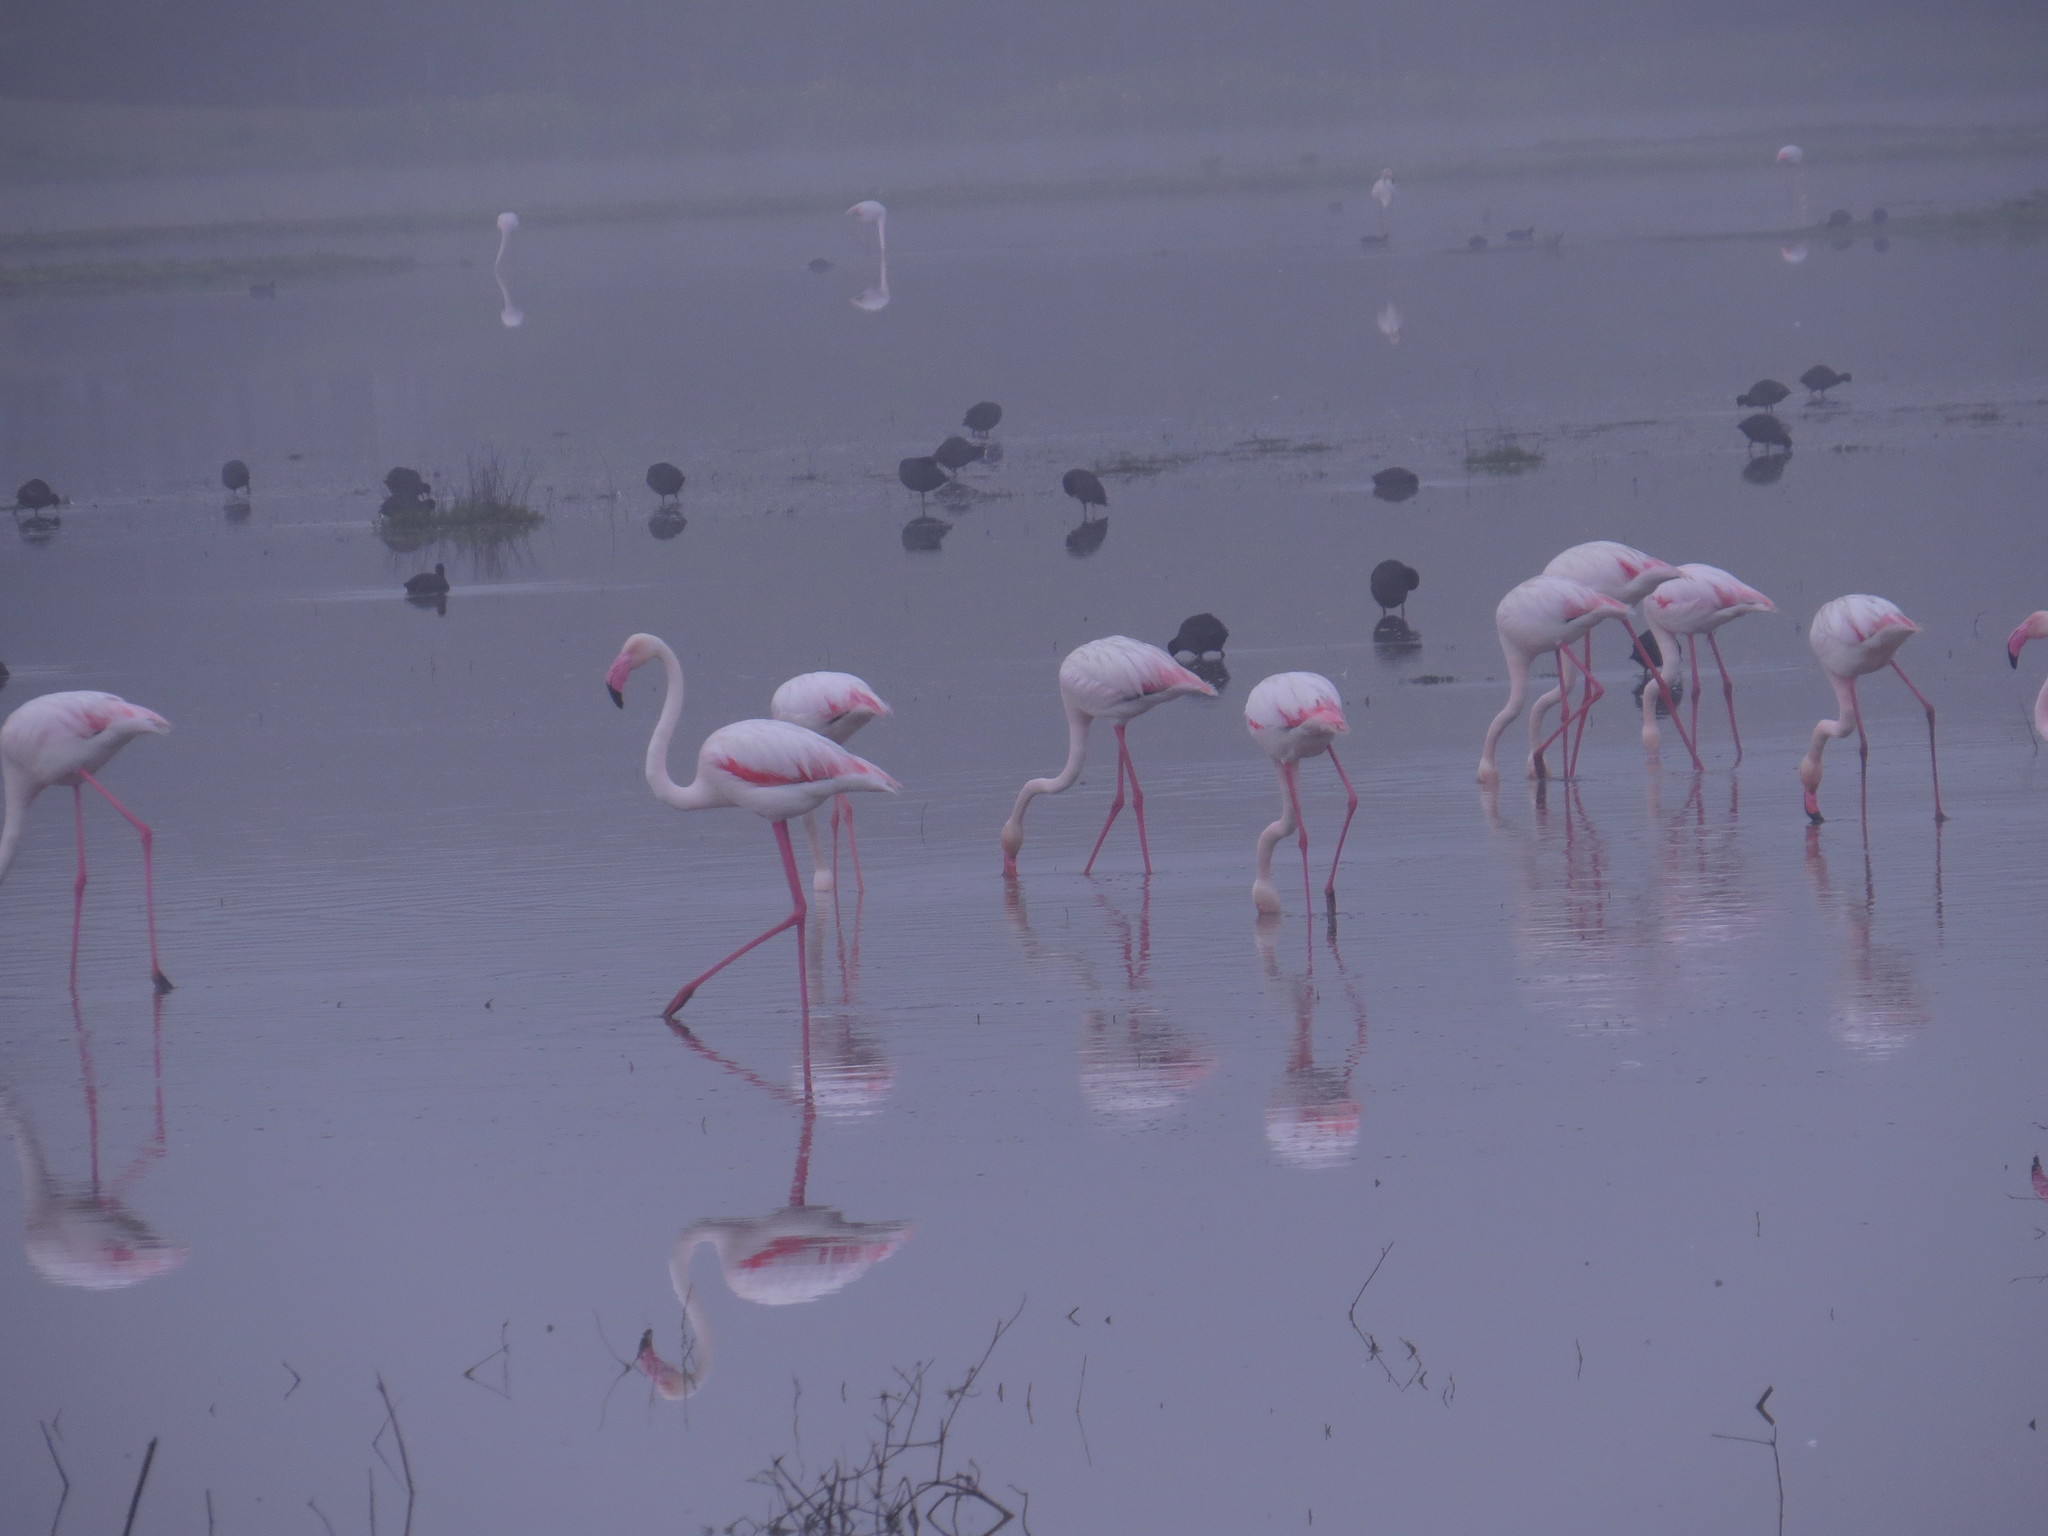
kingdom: Animalia
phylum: Chordata
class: Aves
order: Phoenicopteriformes
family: Phoenicopteridae
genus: Phoenicopterus
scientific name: Phoenicopterus roseus
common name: Greater flamingo
